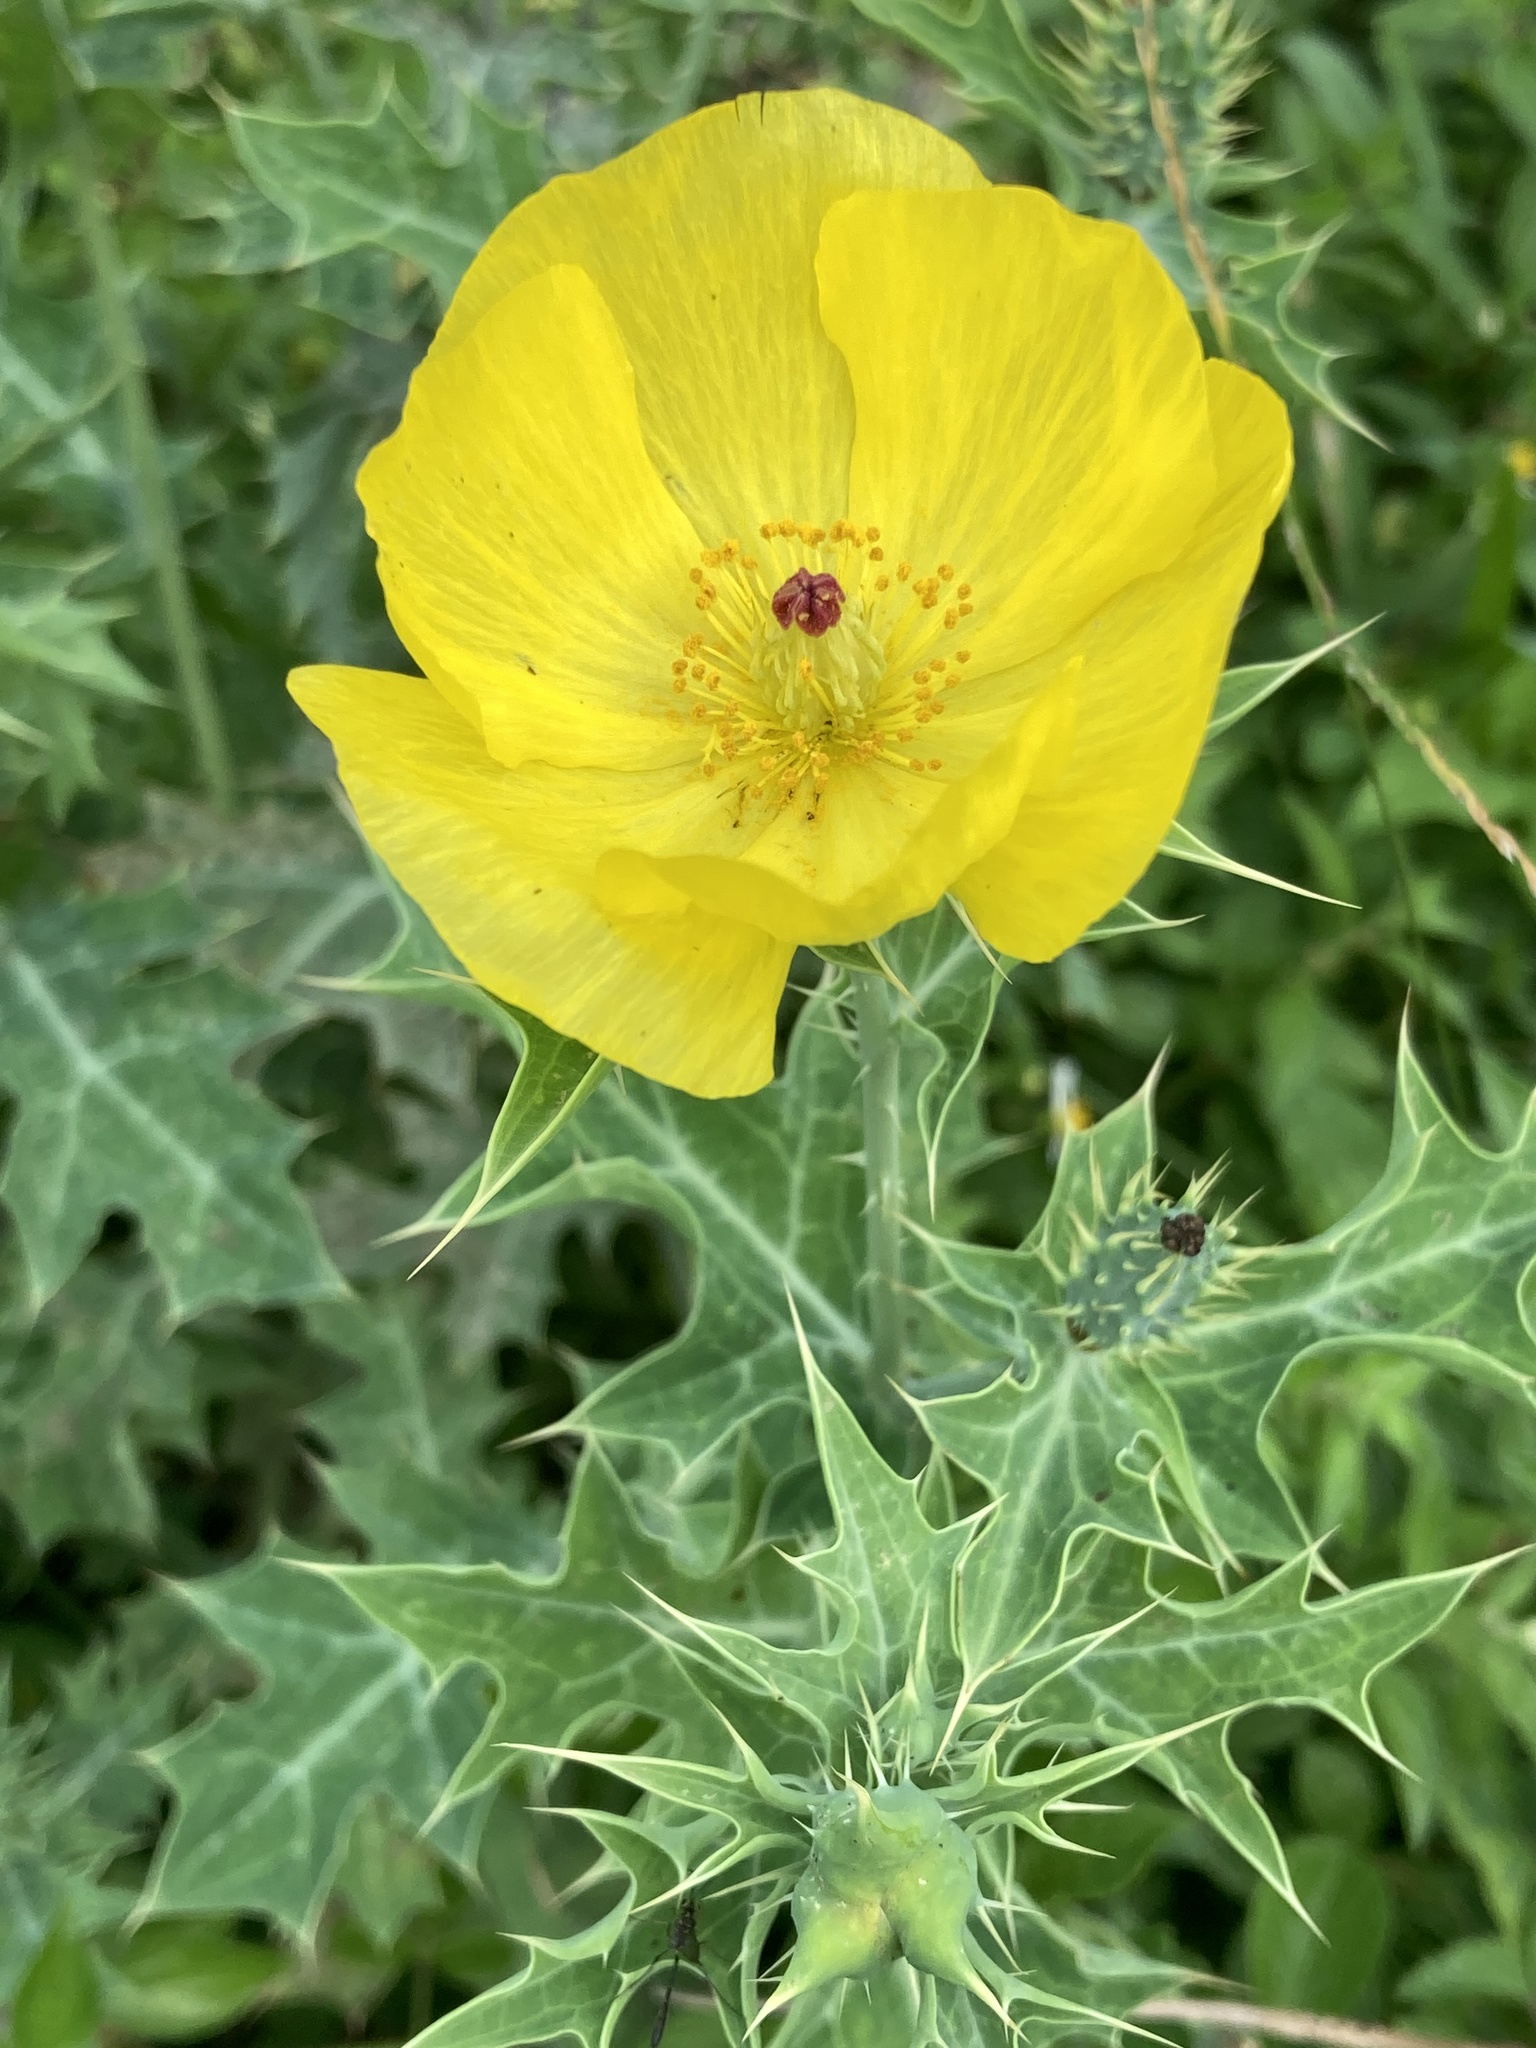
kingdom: Plantae
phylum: Tracheophyta
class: Magnoliopsida
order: Ranunculales
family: Papaveraceae
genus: Argemone
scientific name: Argemone mexicana
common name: Mexican poppy
